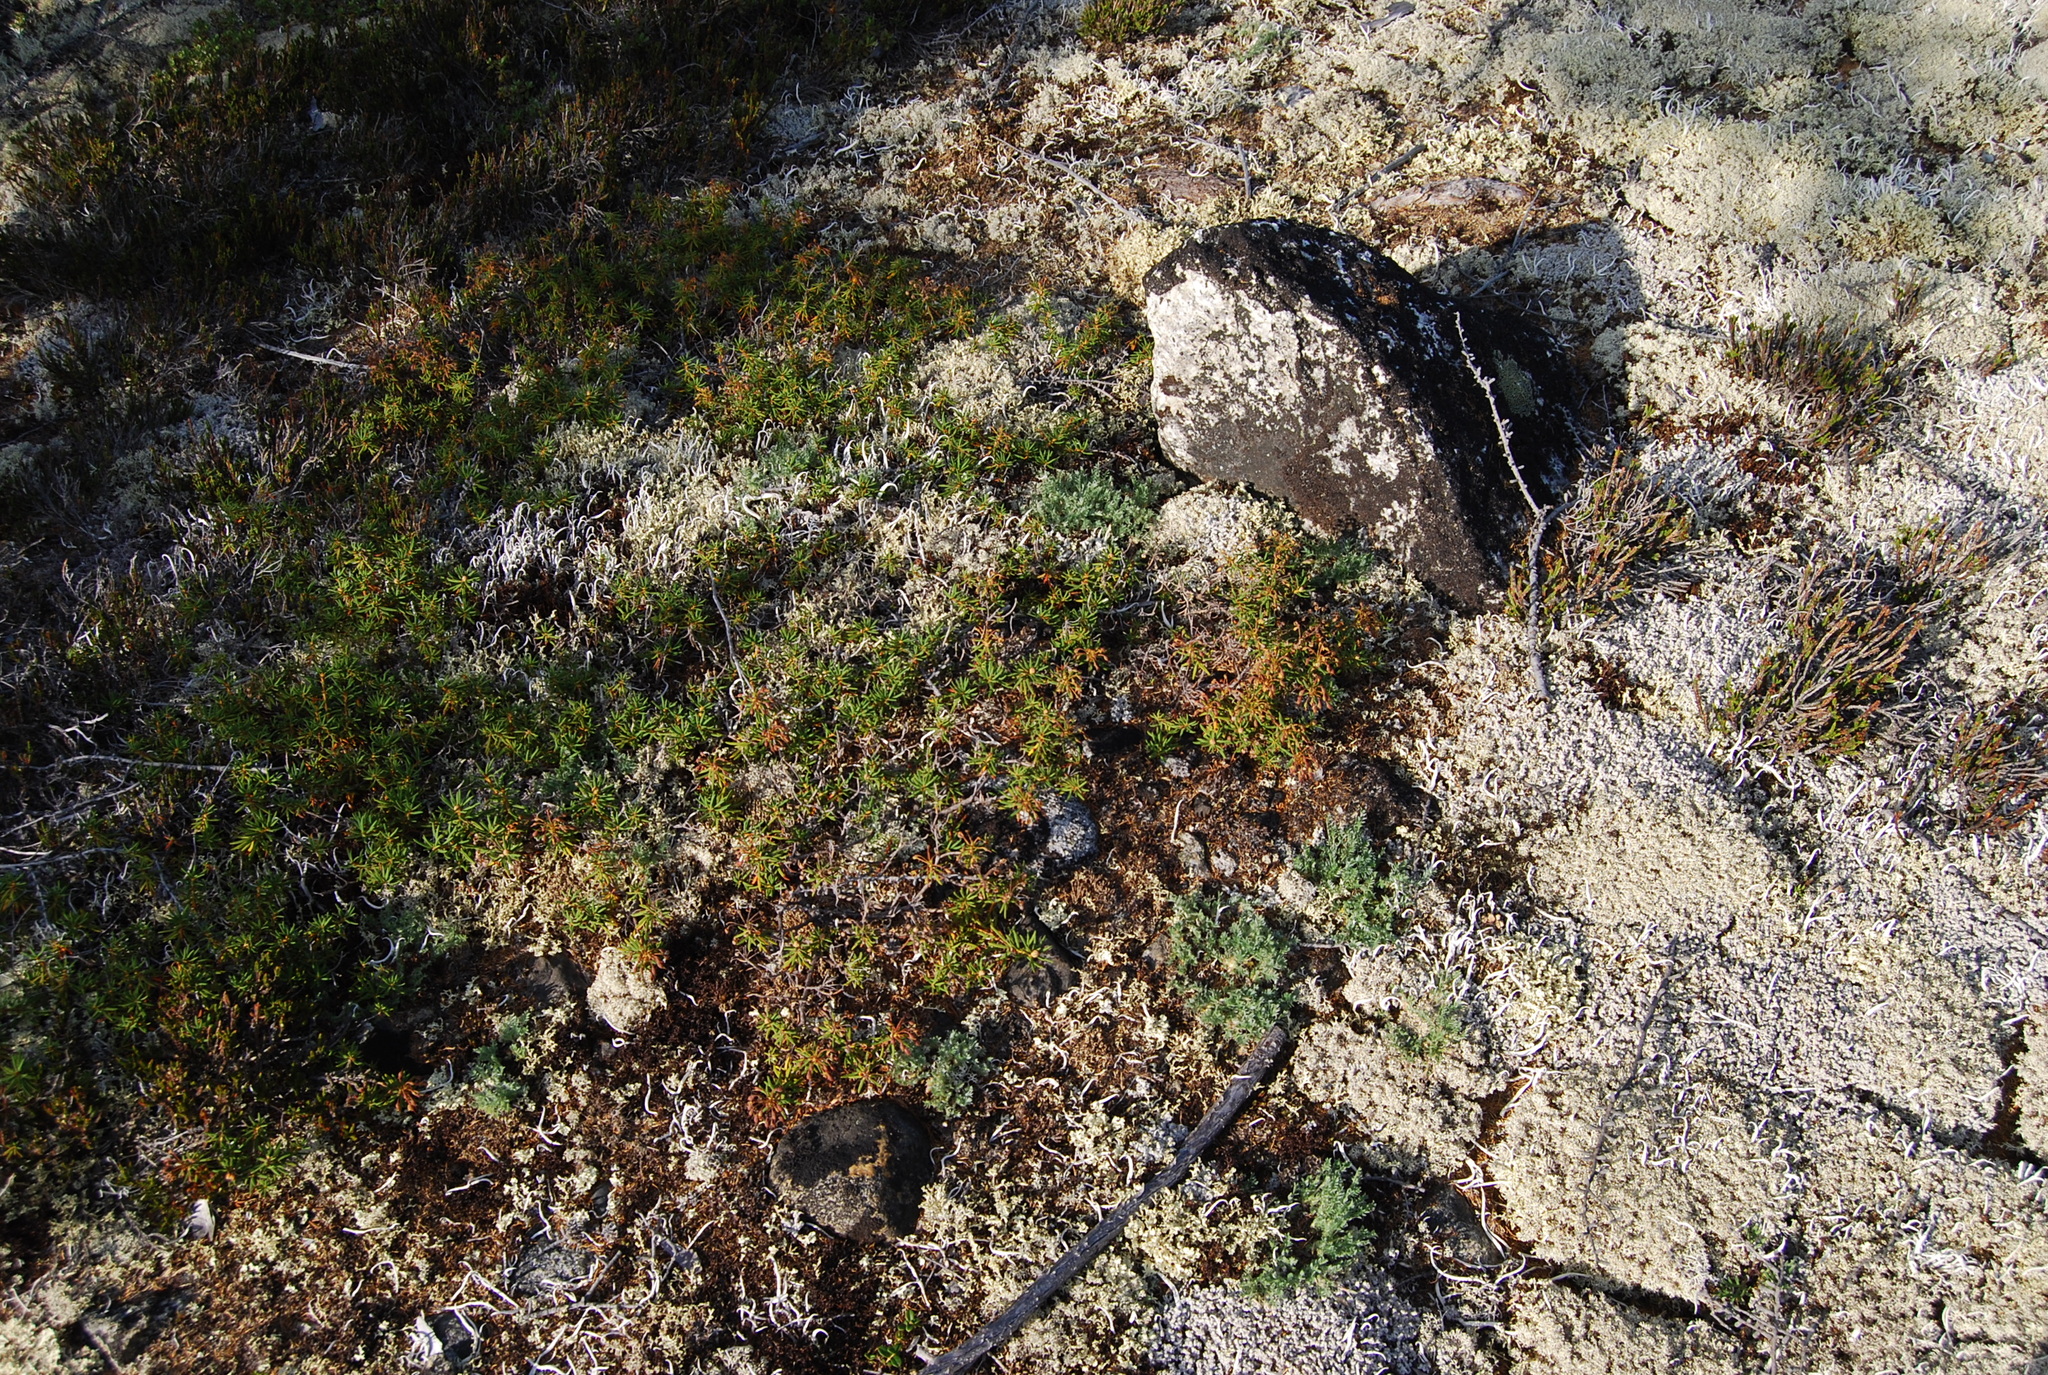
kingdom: Plantae
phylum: Tracheophyta
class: Magnoliopsida
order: Fabales
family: Fabaceae
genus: Oxytropis
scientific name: Oxytropis susumanica
